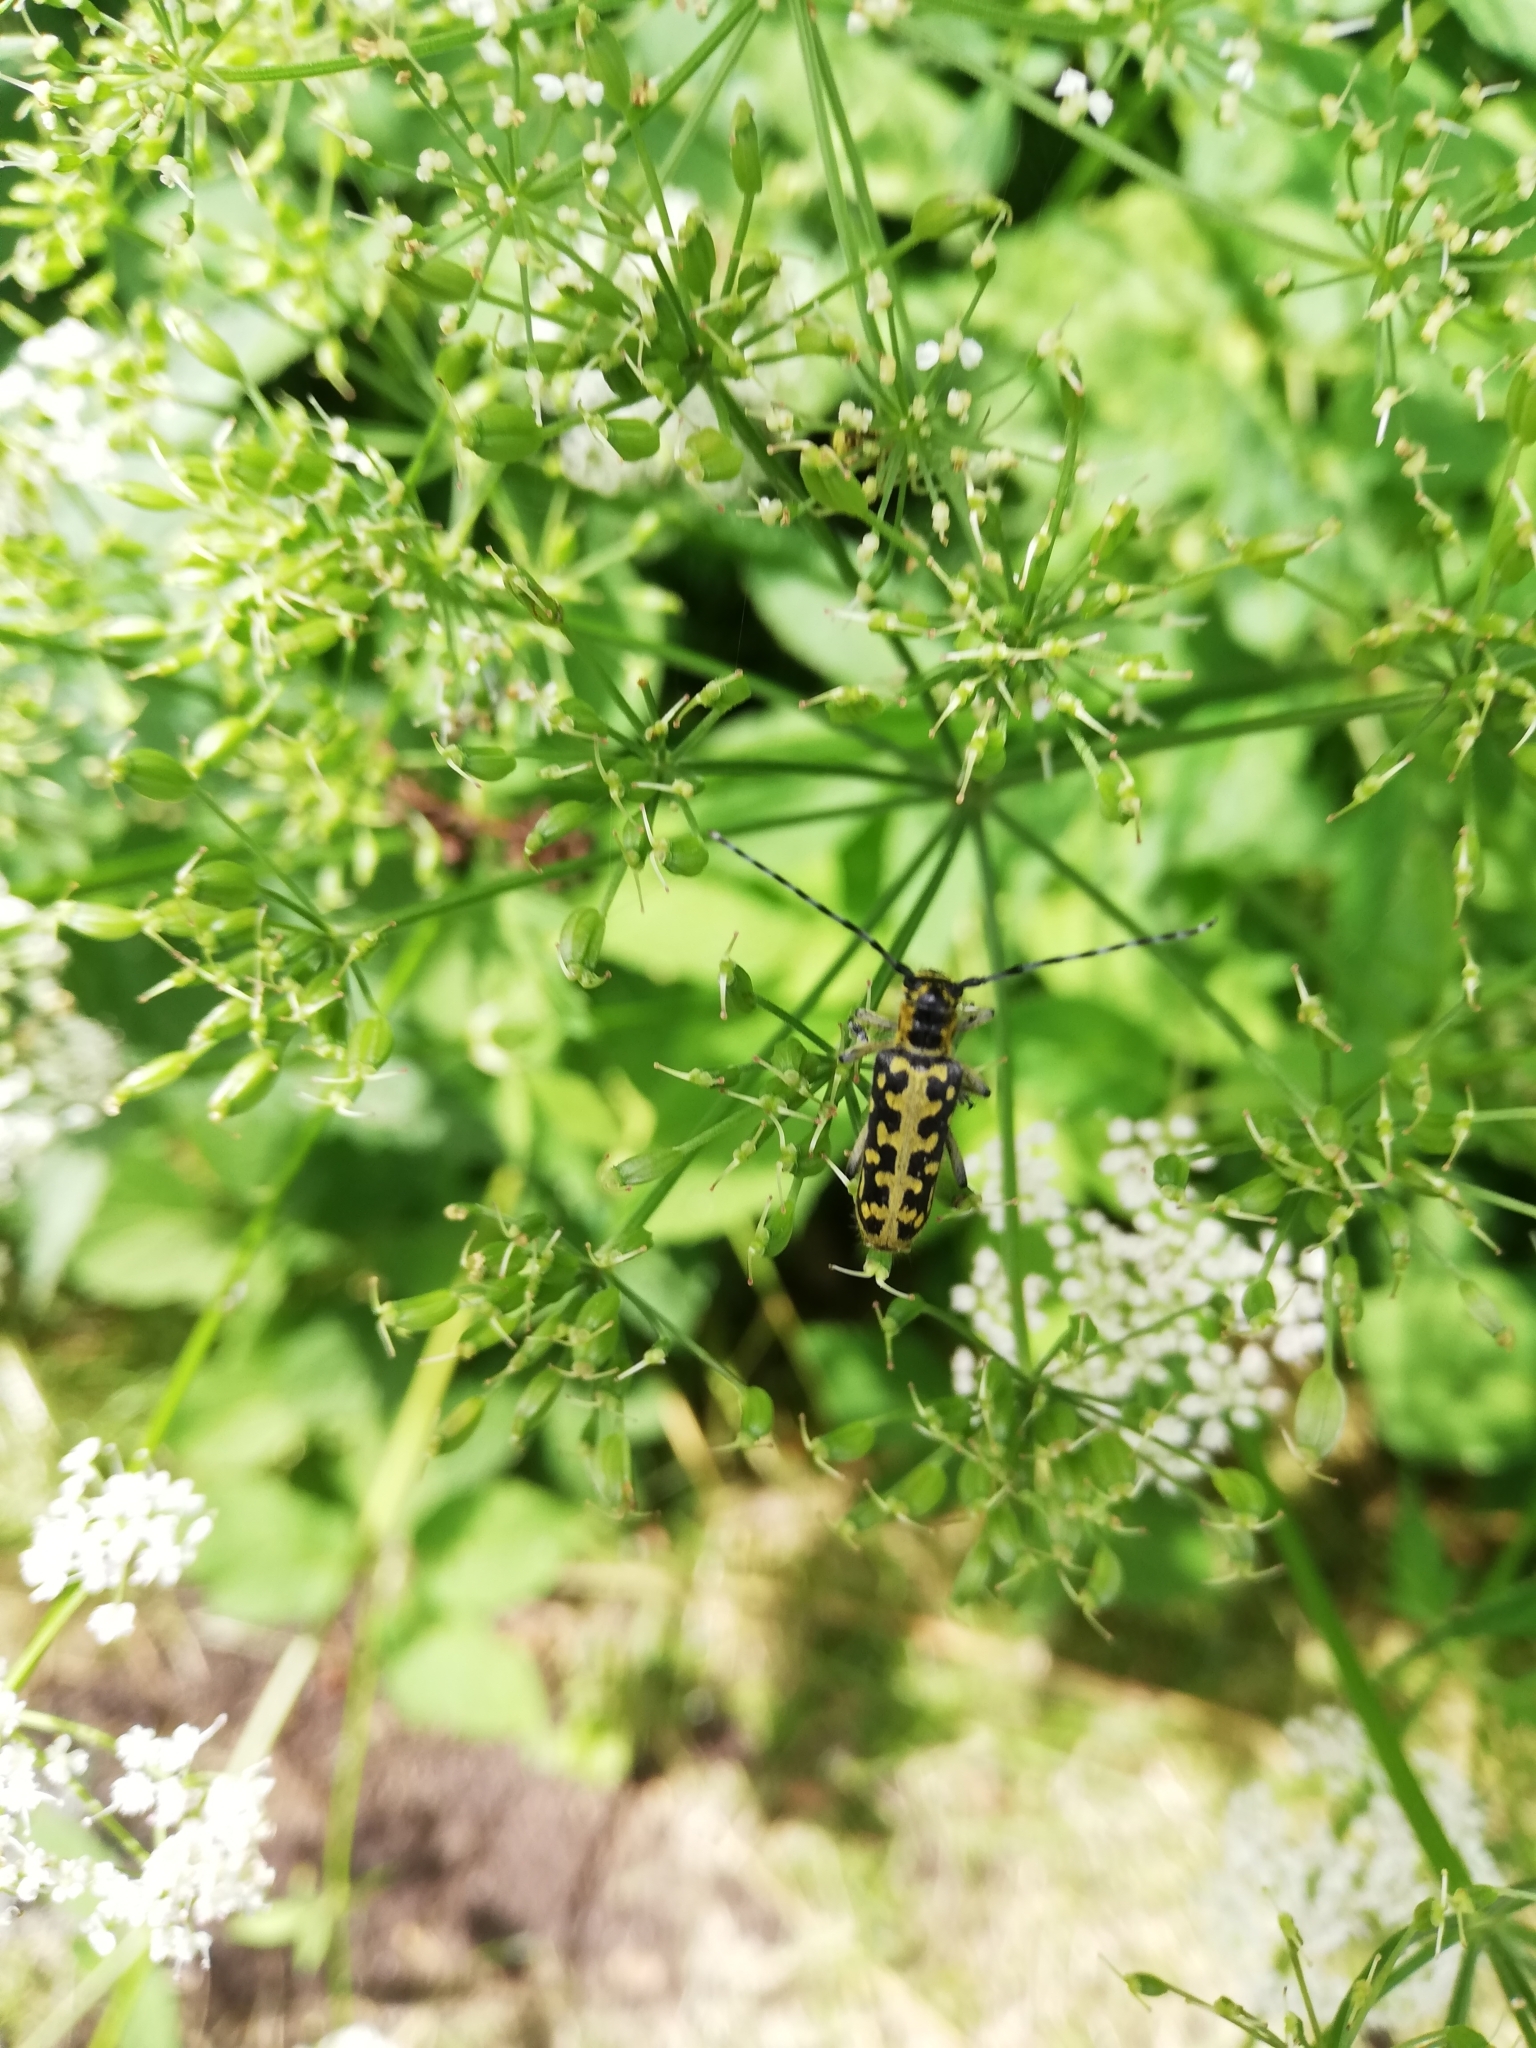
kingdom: Animalia
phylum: Arthropoda
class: Insecta
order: Coleoptera
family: Cerambycidae
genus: Saperda
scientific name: Saperda scalaris
